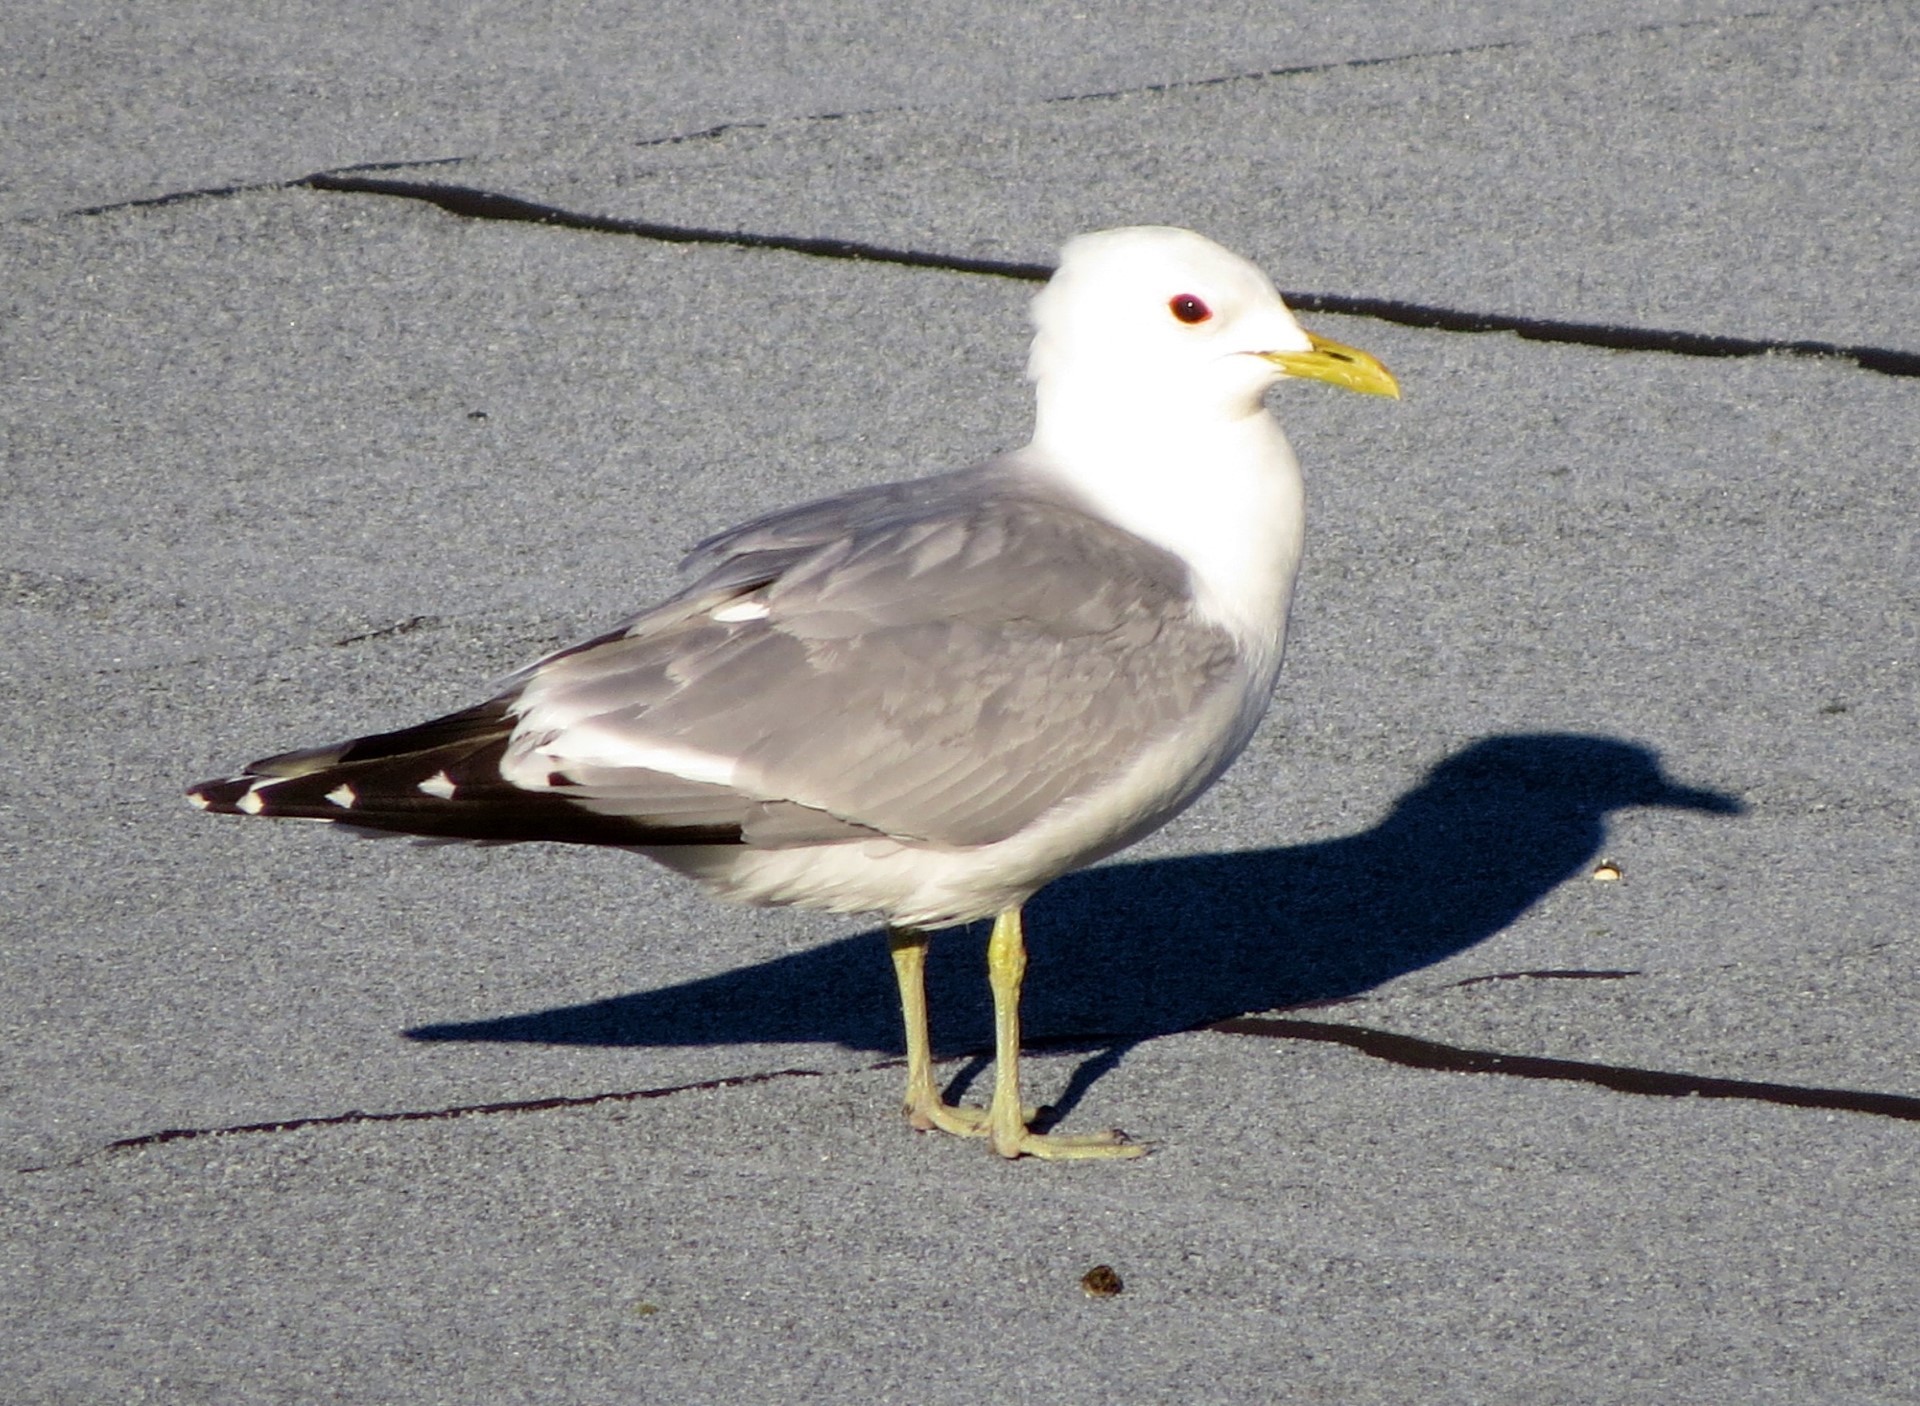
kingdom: Animalia
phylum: Chordata
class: Aves
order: Charadriiformes
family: Laridae
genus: Larus
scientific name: Larus canus
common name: Mew gull
